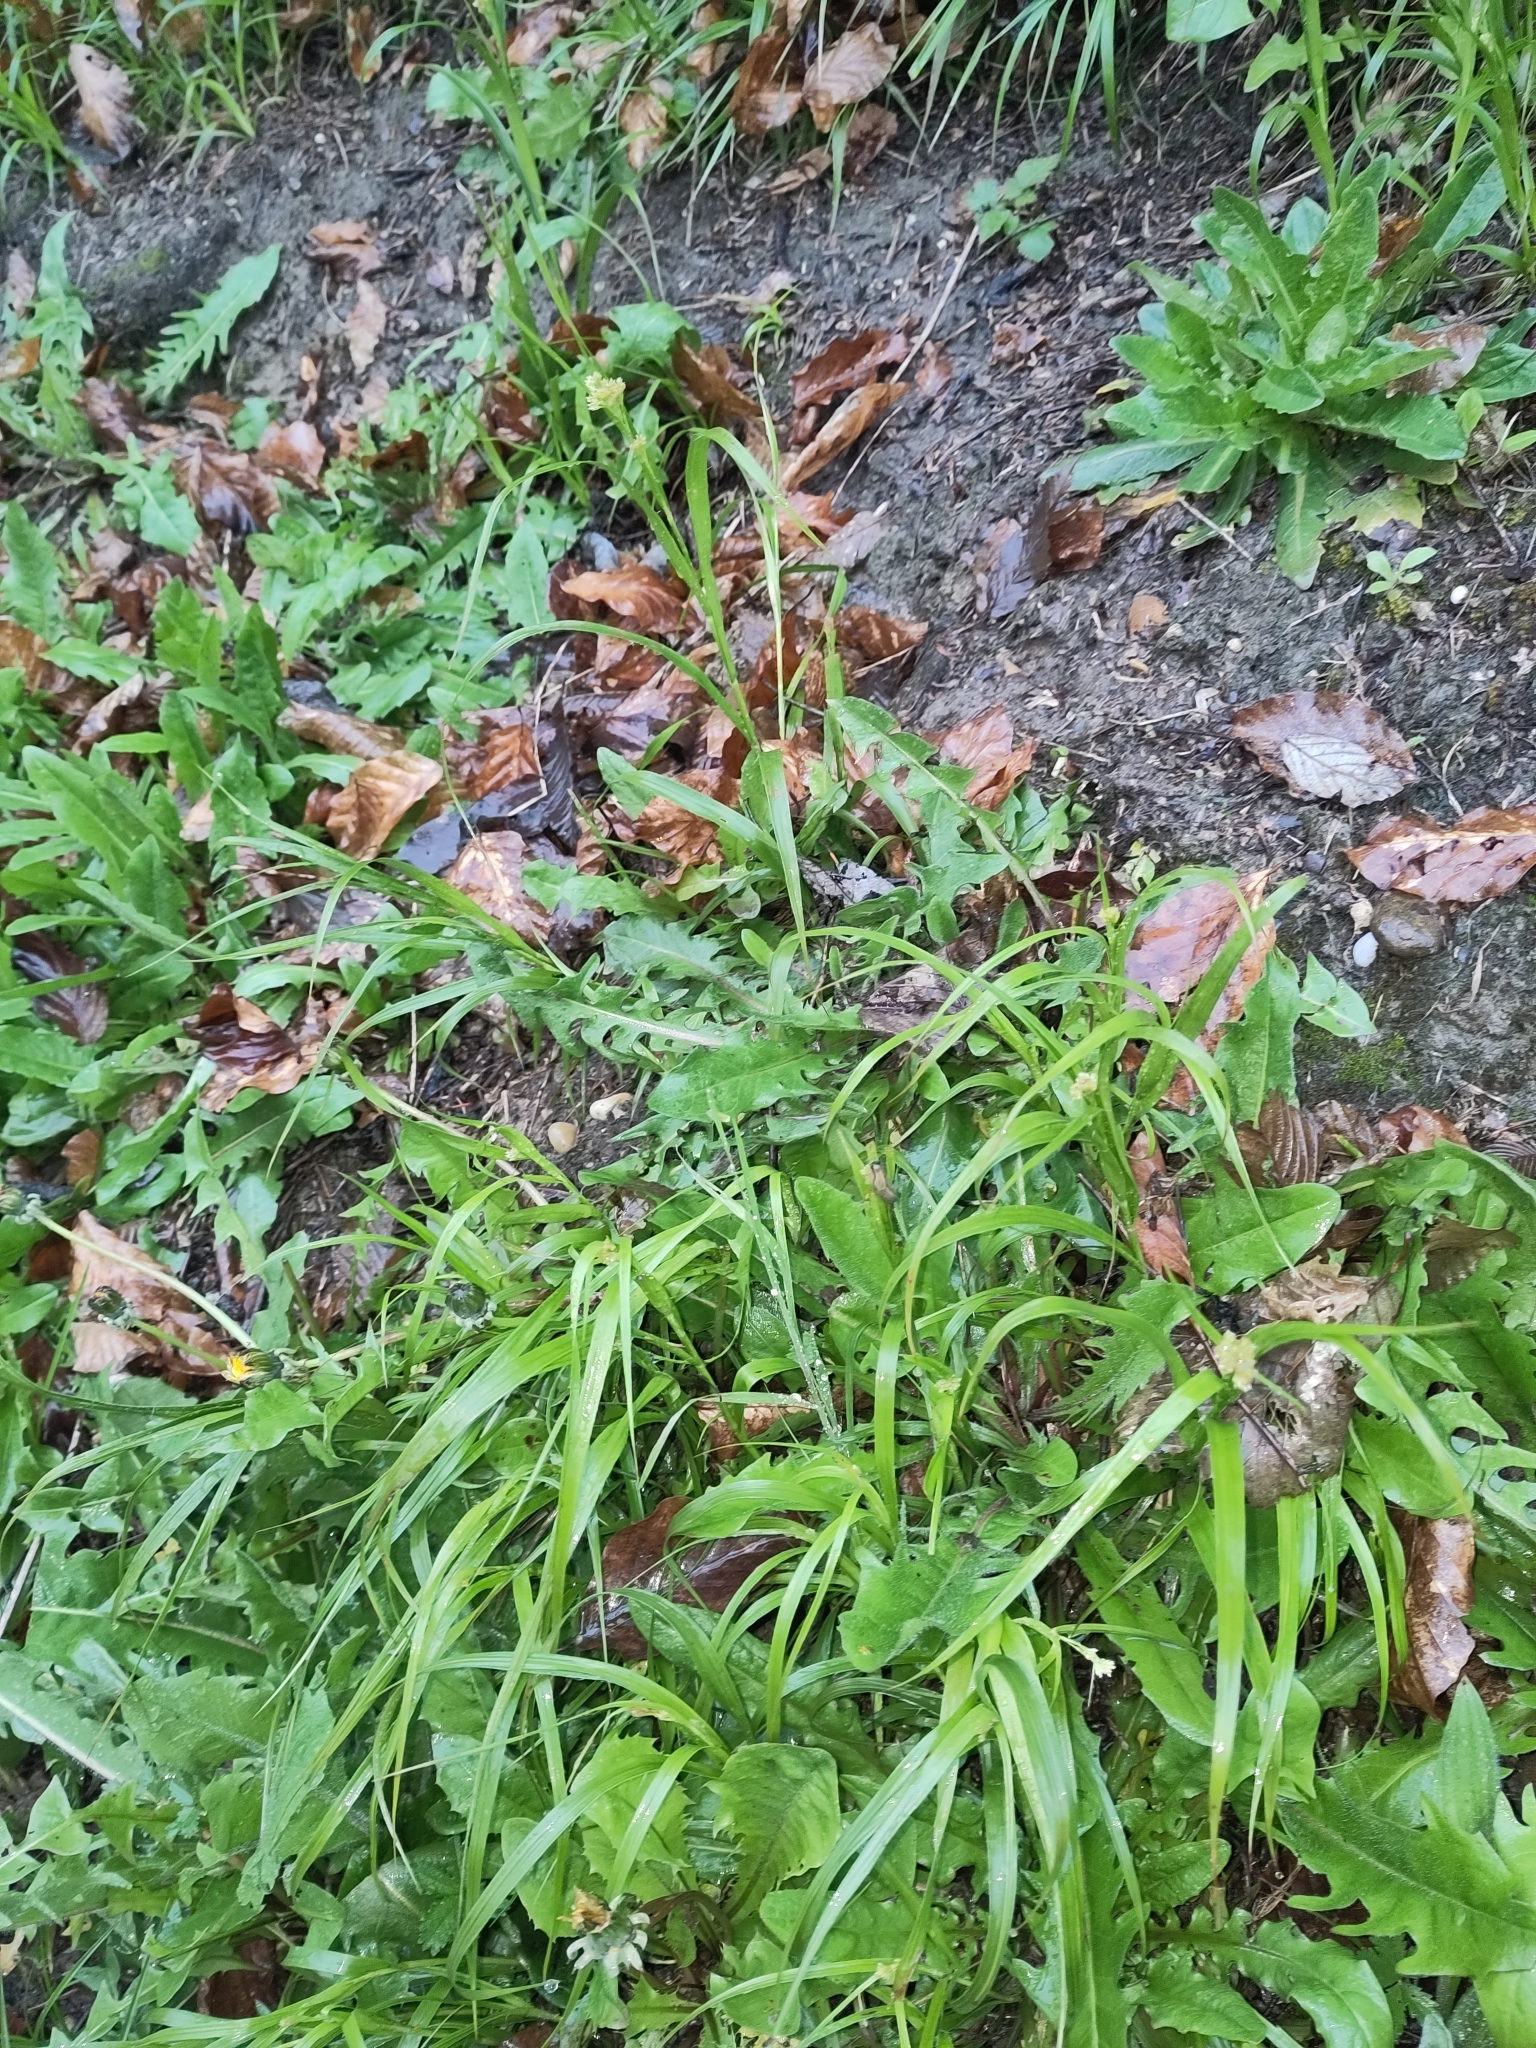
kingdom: Plantae
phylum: Tracheophyta
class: Liliopsida
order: Poales
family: Juncaceae
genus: Luzula
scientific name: Luzula luzuloides
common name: White wood-rush
